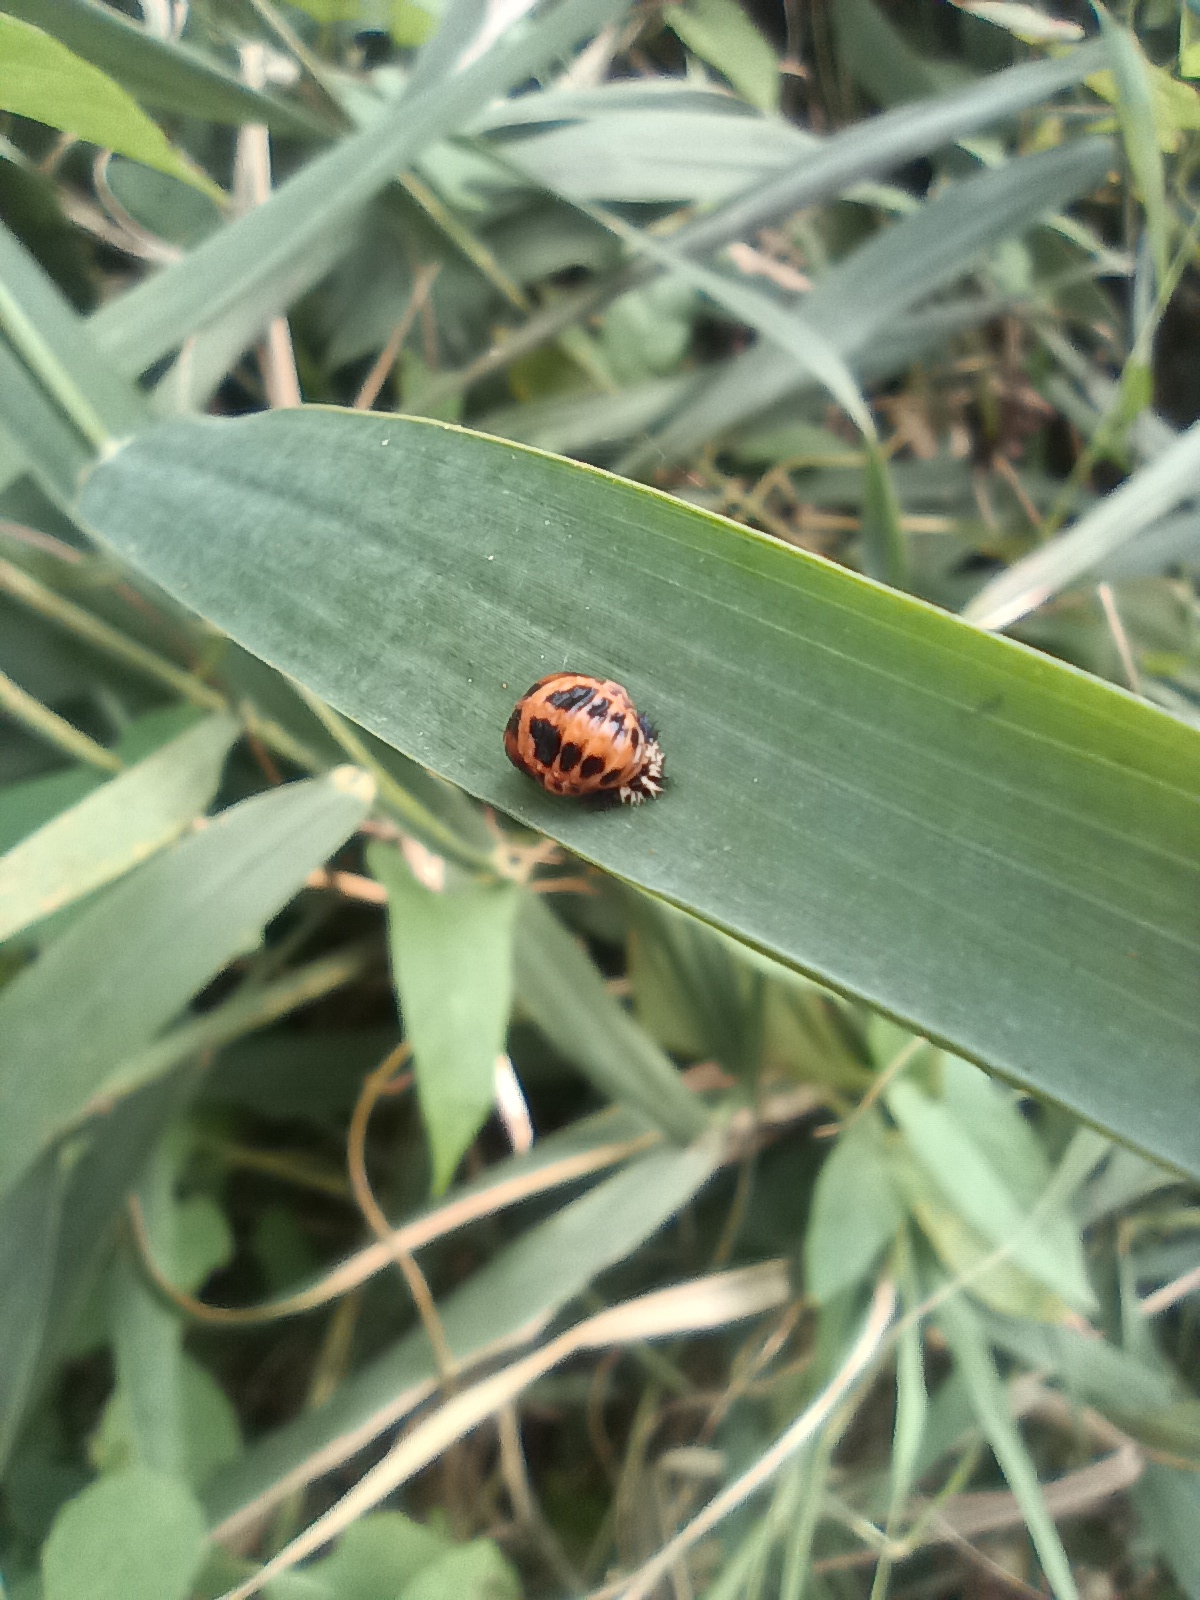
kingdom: Animalia
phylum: Arthropoda
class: Insecta
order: Coleoptera
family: Coccinellidae
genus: Harmonia
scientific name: Harmonia axyridis
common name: Harlequin ladybird
